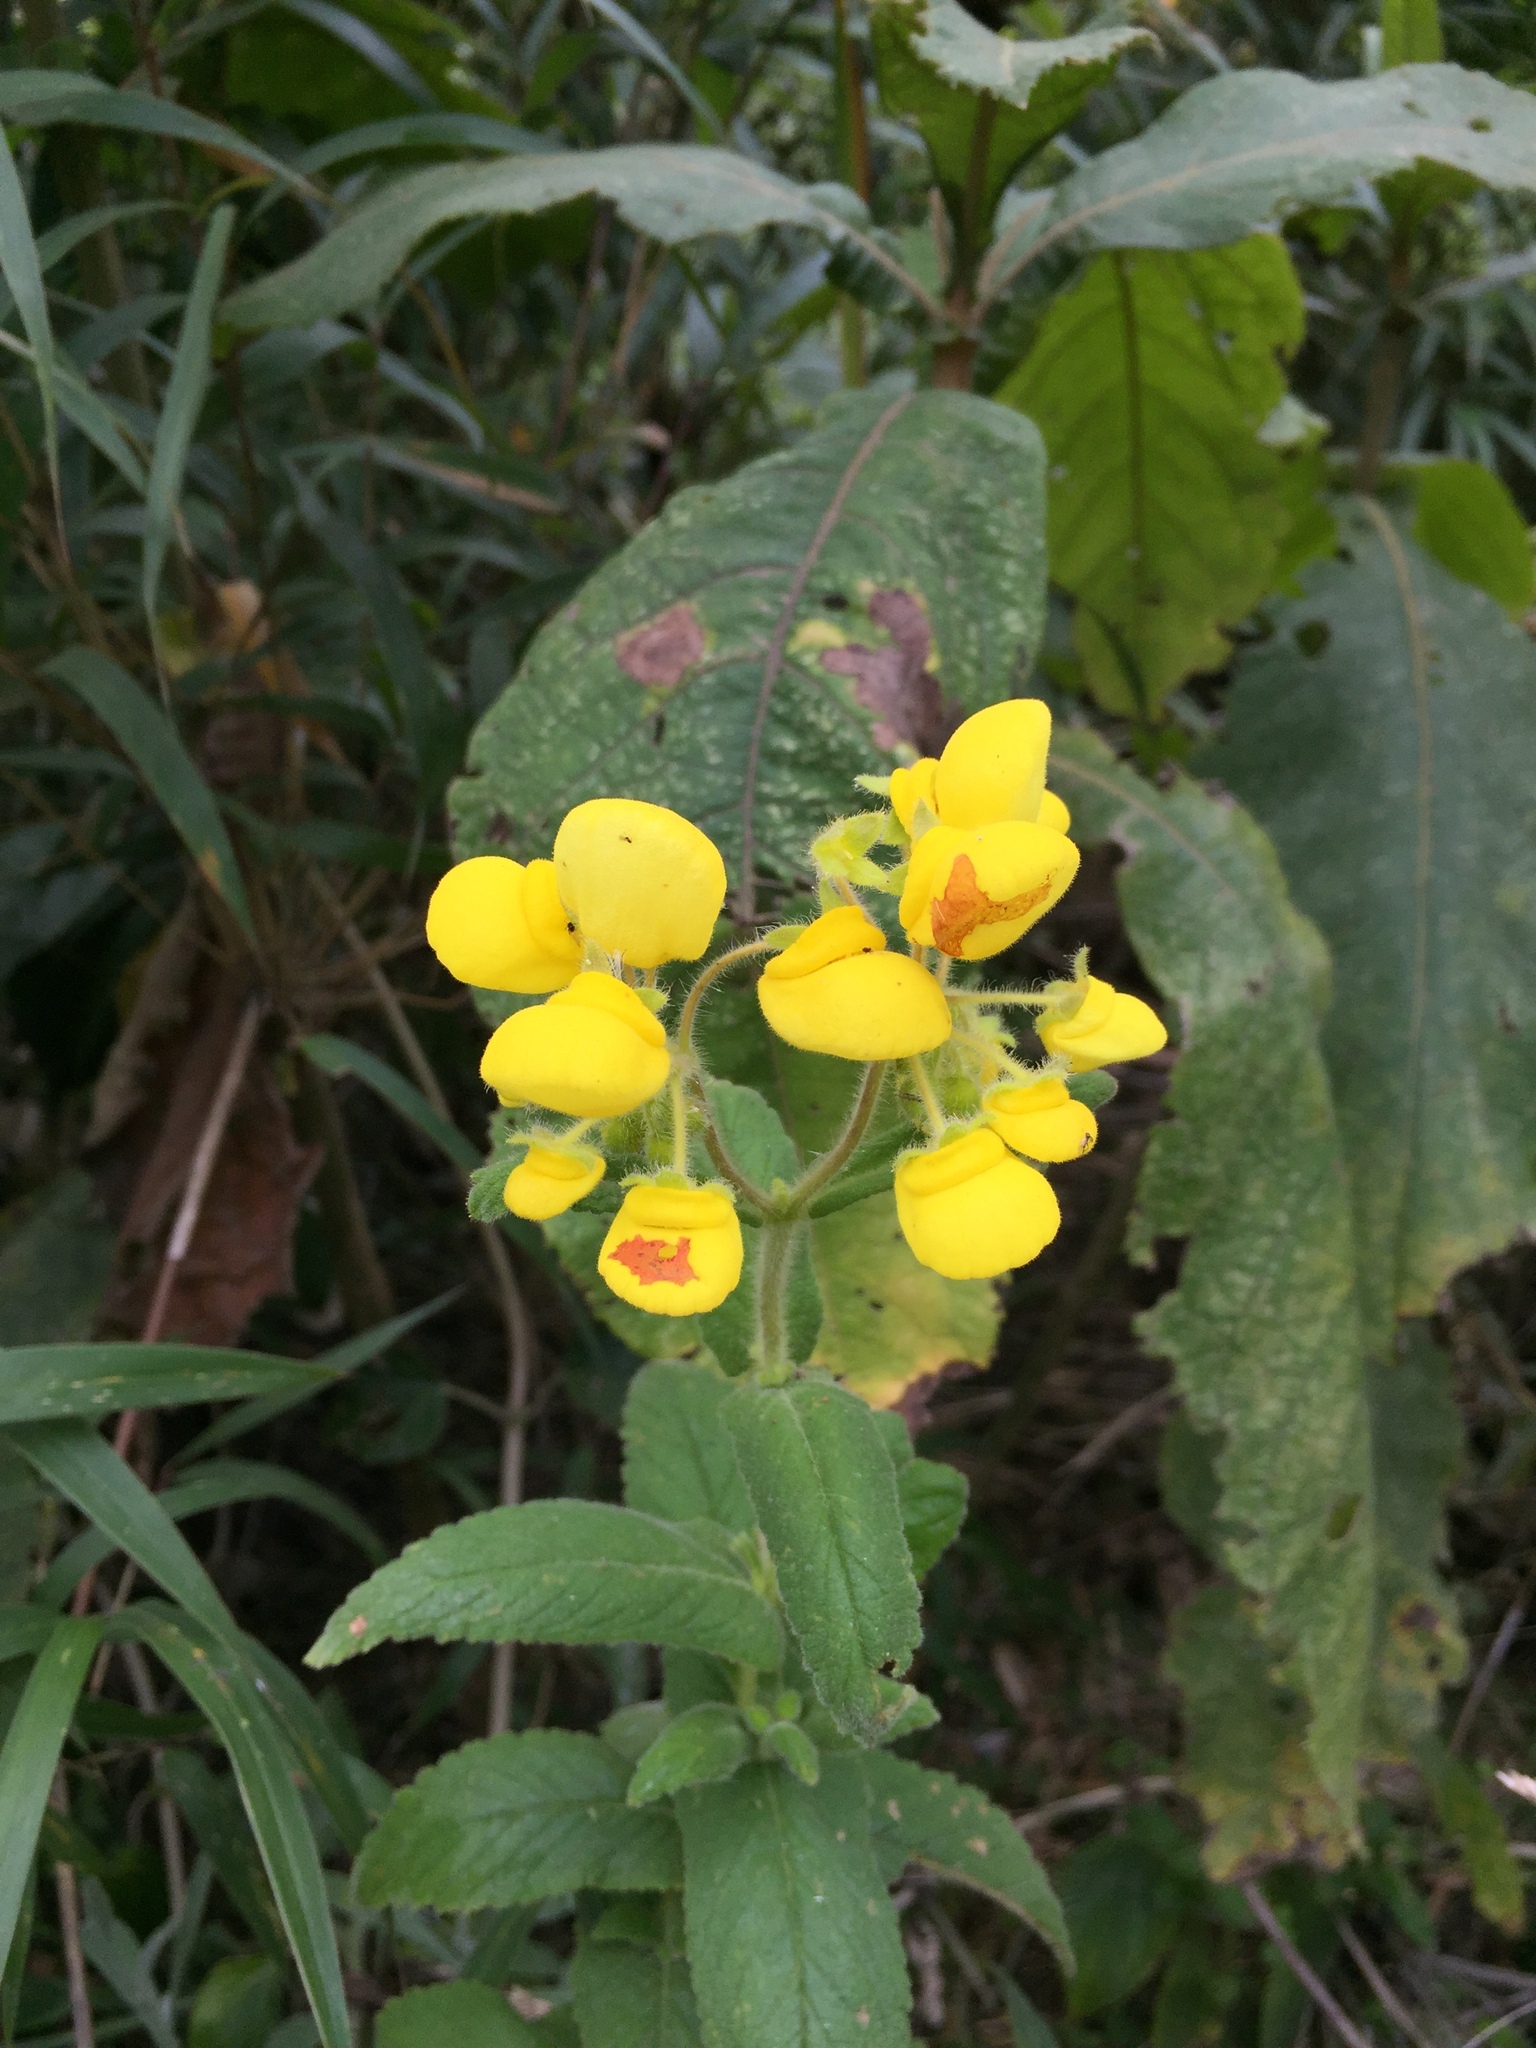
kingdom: Plantae
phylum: Tracheophyta
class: Magnoliopsida
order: Lamiales
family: Calceolariaceae
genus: Calceolaria
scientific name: Calceolaria crenata
